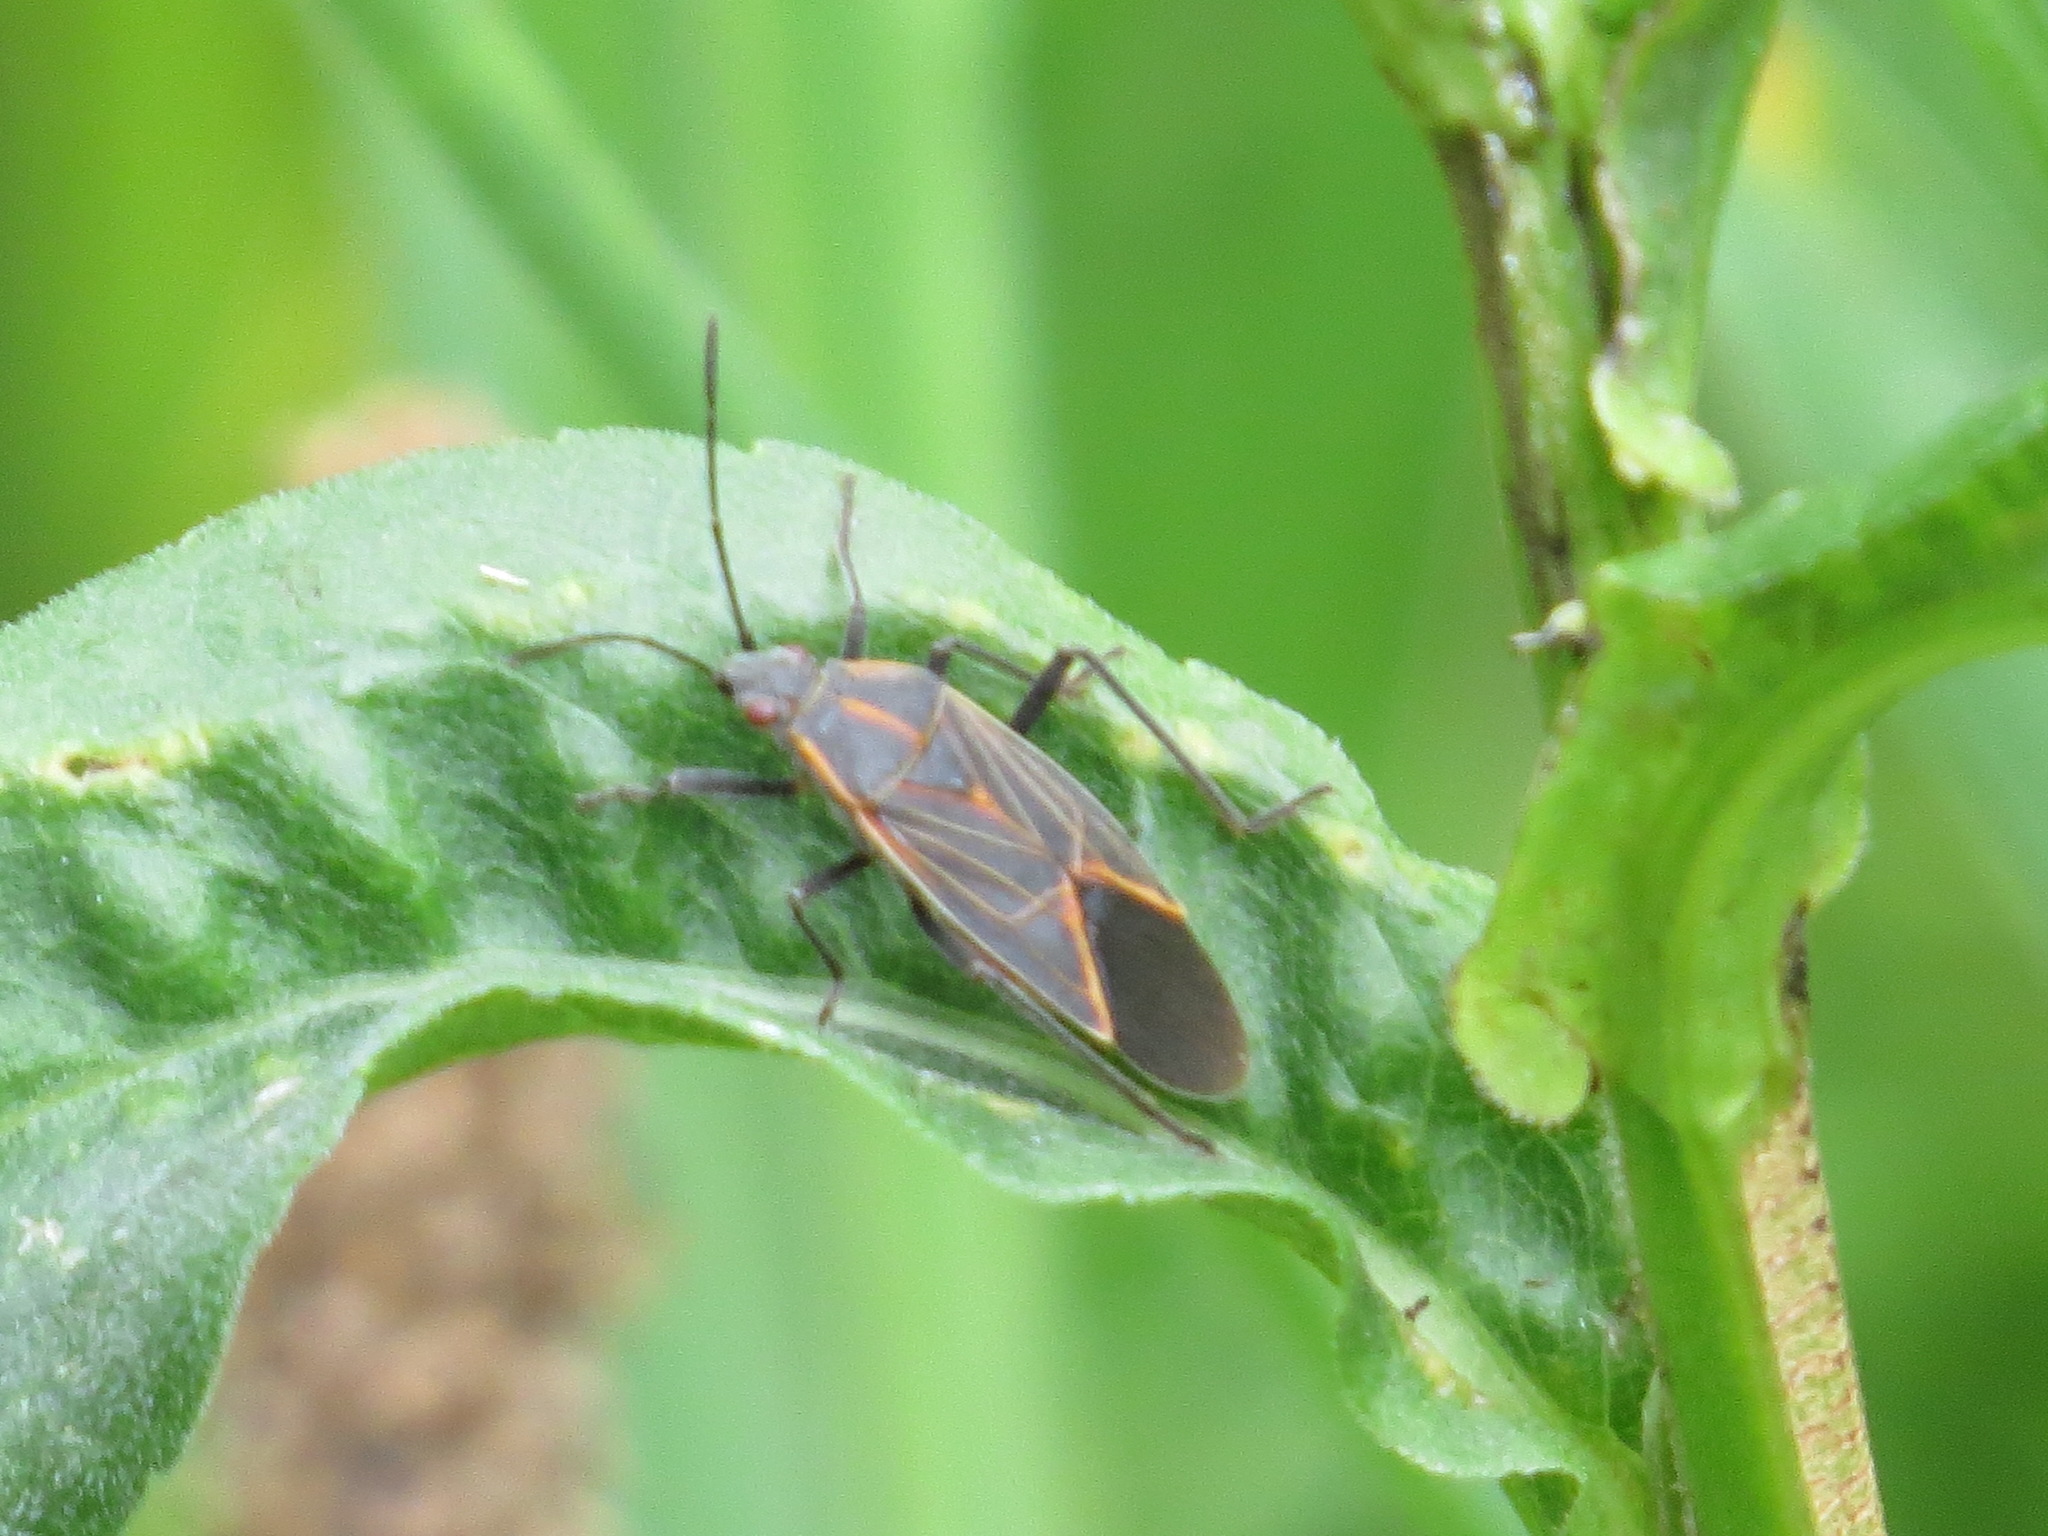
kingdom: Animalia
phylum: Arthropoda
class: Insecta
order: Hemiptera
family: Rhopalidae
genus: Boisea
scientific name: Boisea rubrolineata
